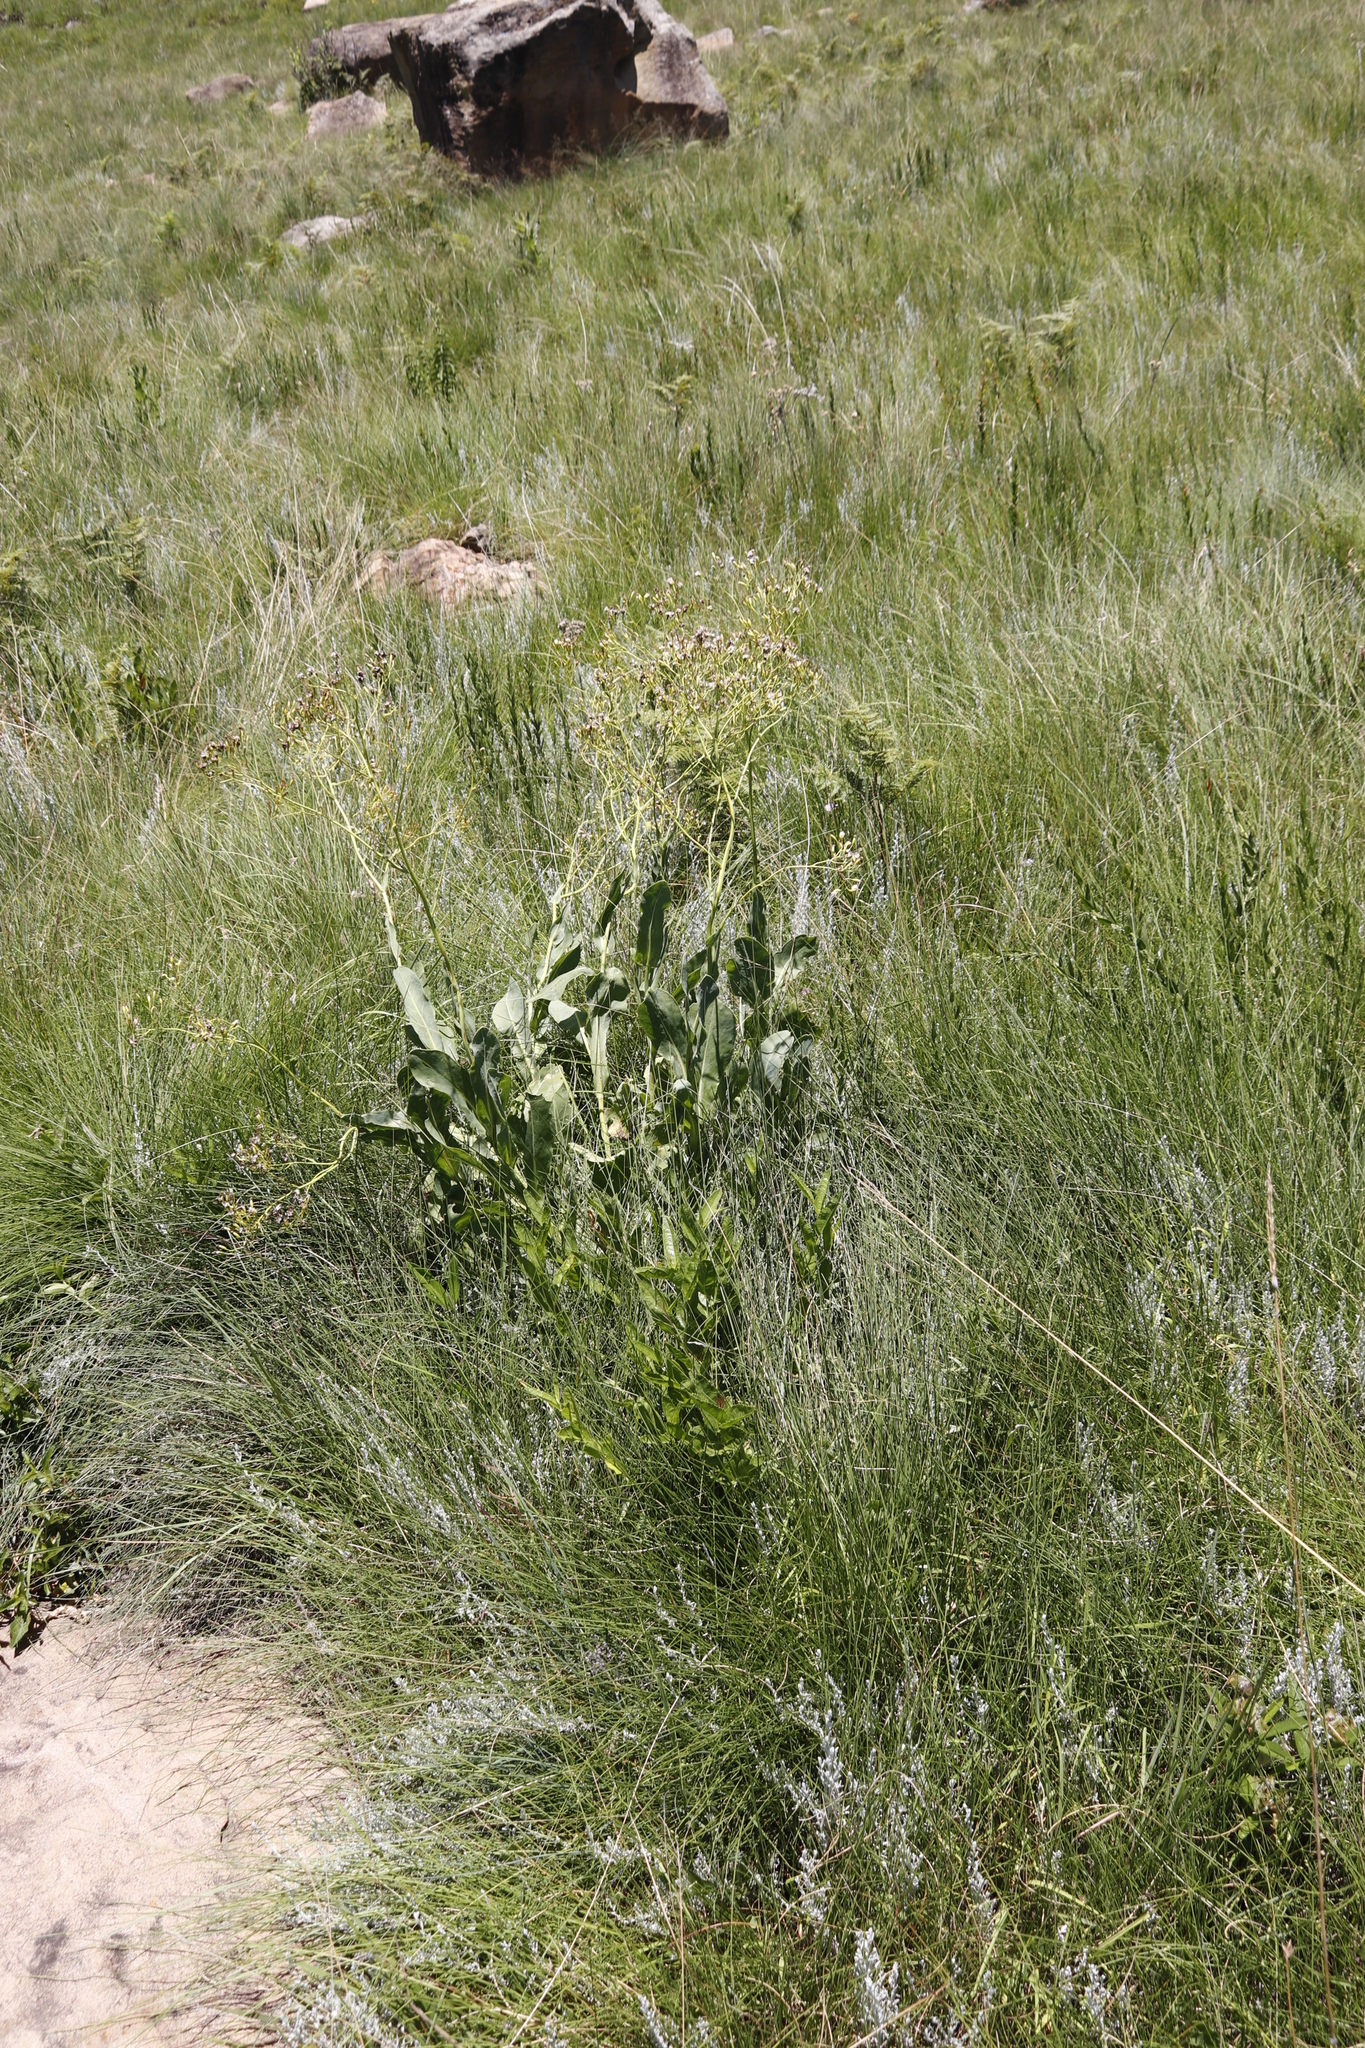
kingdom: Plantae
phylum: Tracheophyta
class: Magnoliopsida
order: Asterales
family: Asteraceae
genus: Senecio
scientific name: Senecio isatideus
